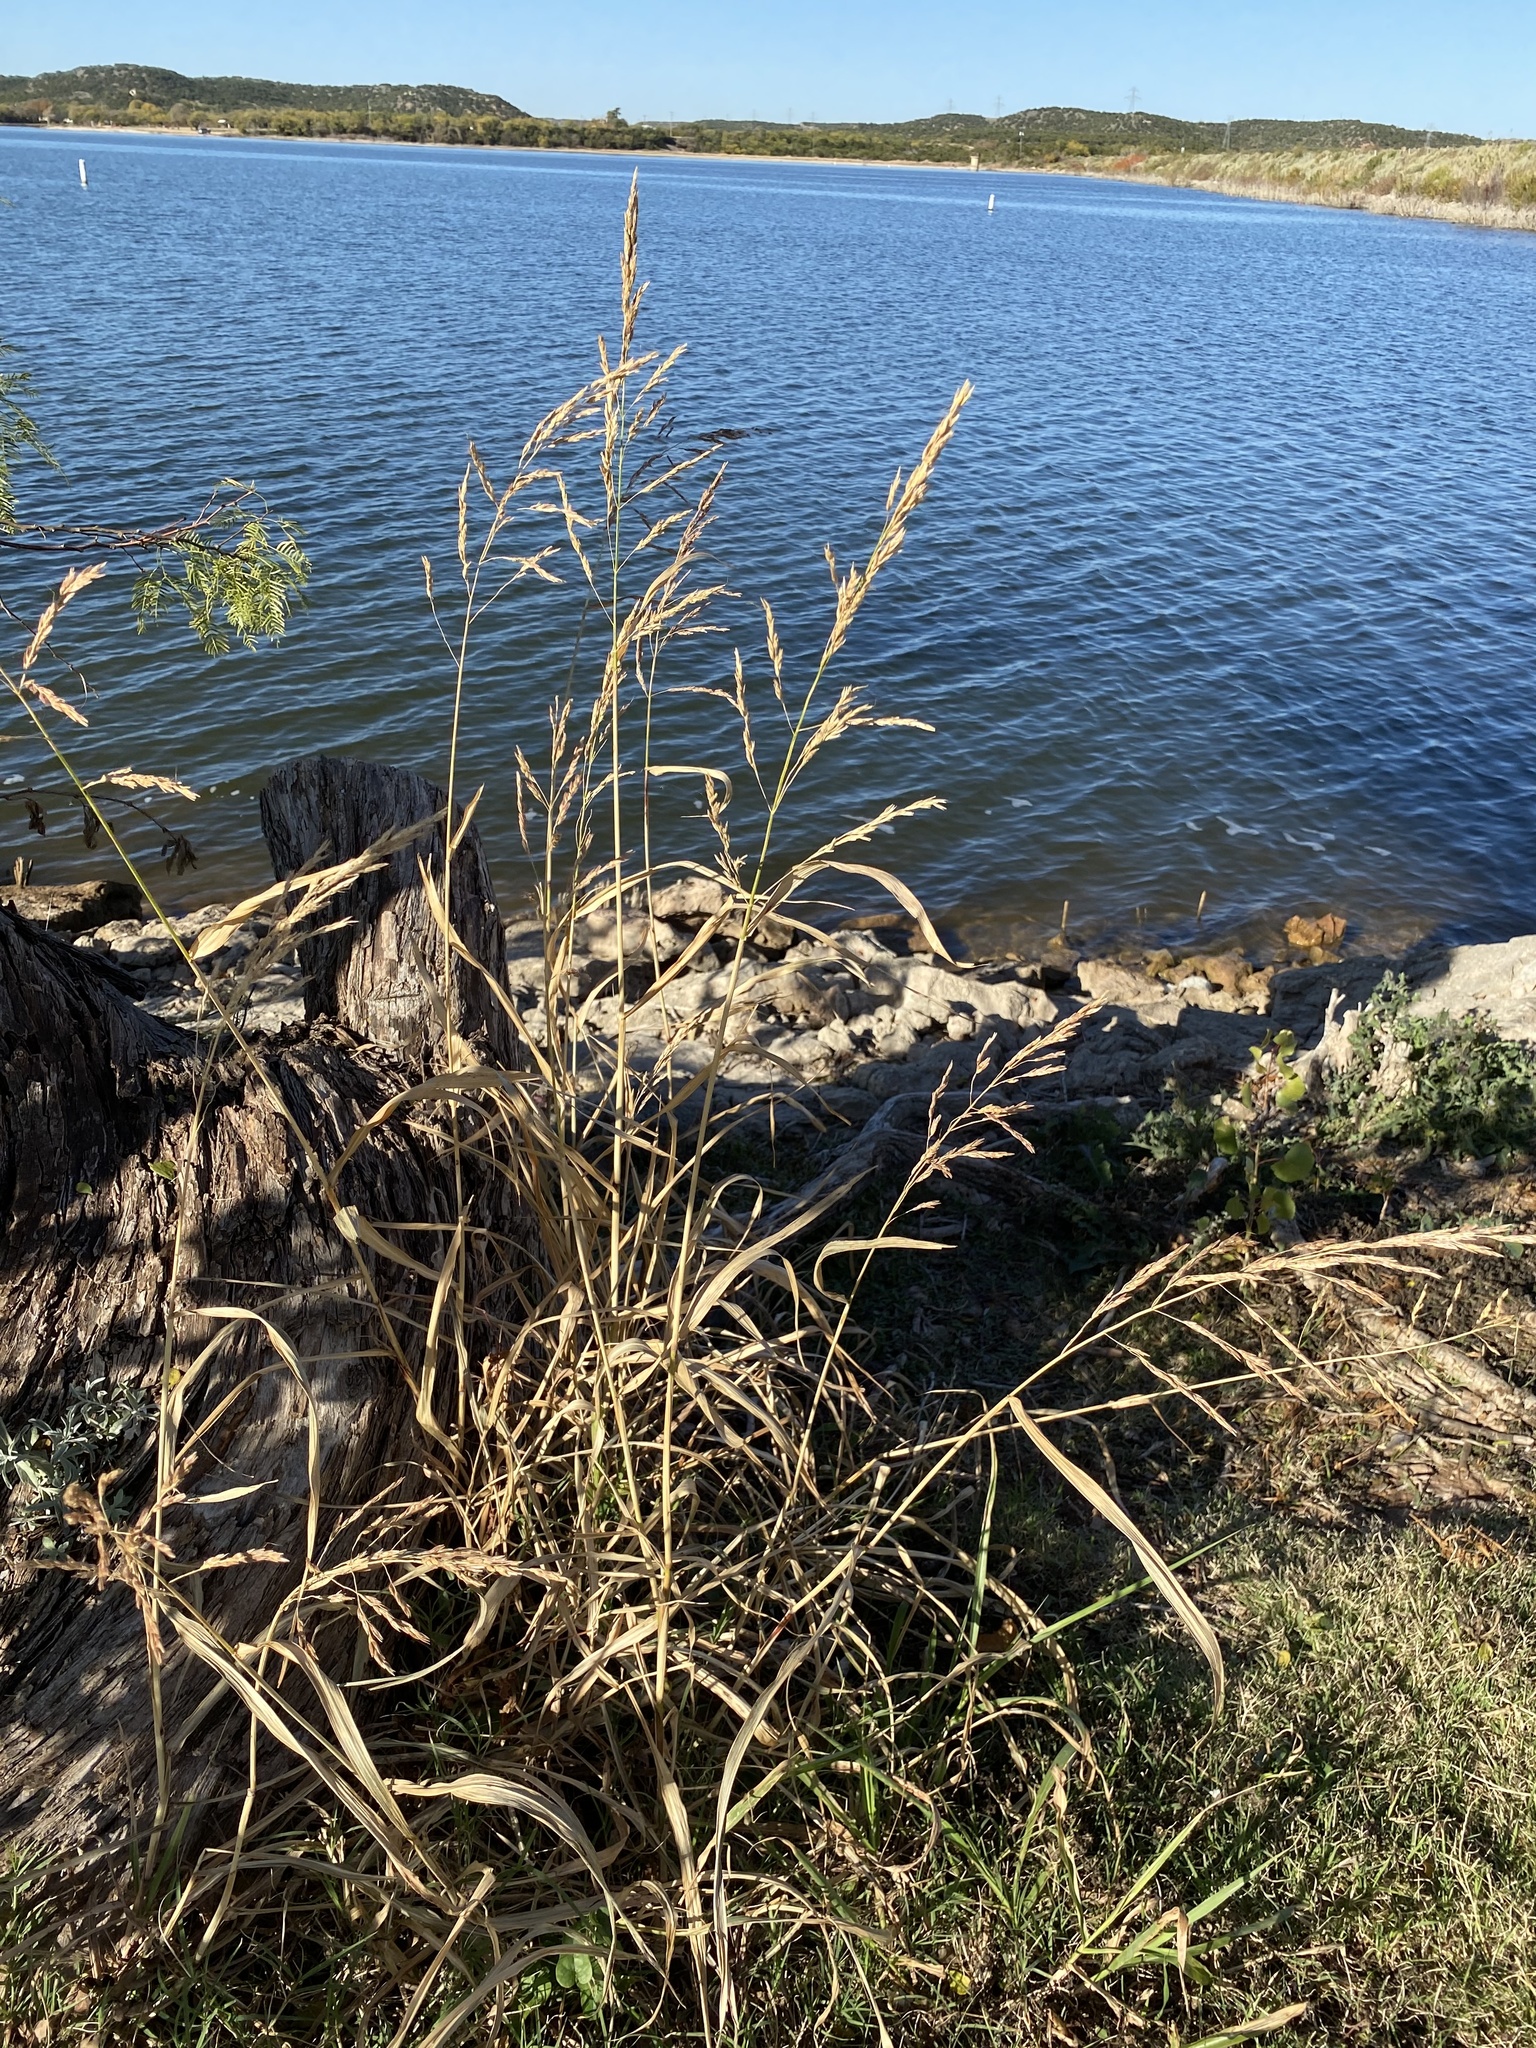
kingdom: Plantae
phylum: Tracheophyta
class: Liliopsida
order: Poales
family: Poaceae
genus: Sorghum
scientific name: Sorghum halepense
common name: Johnson-grass
